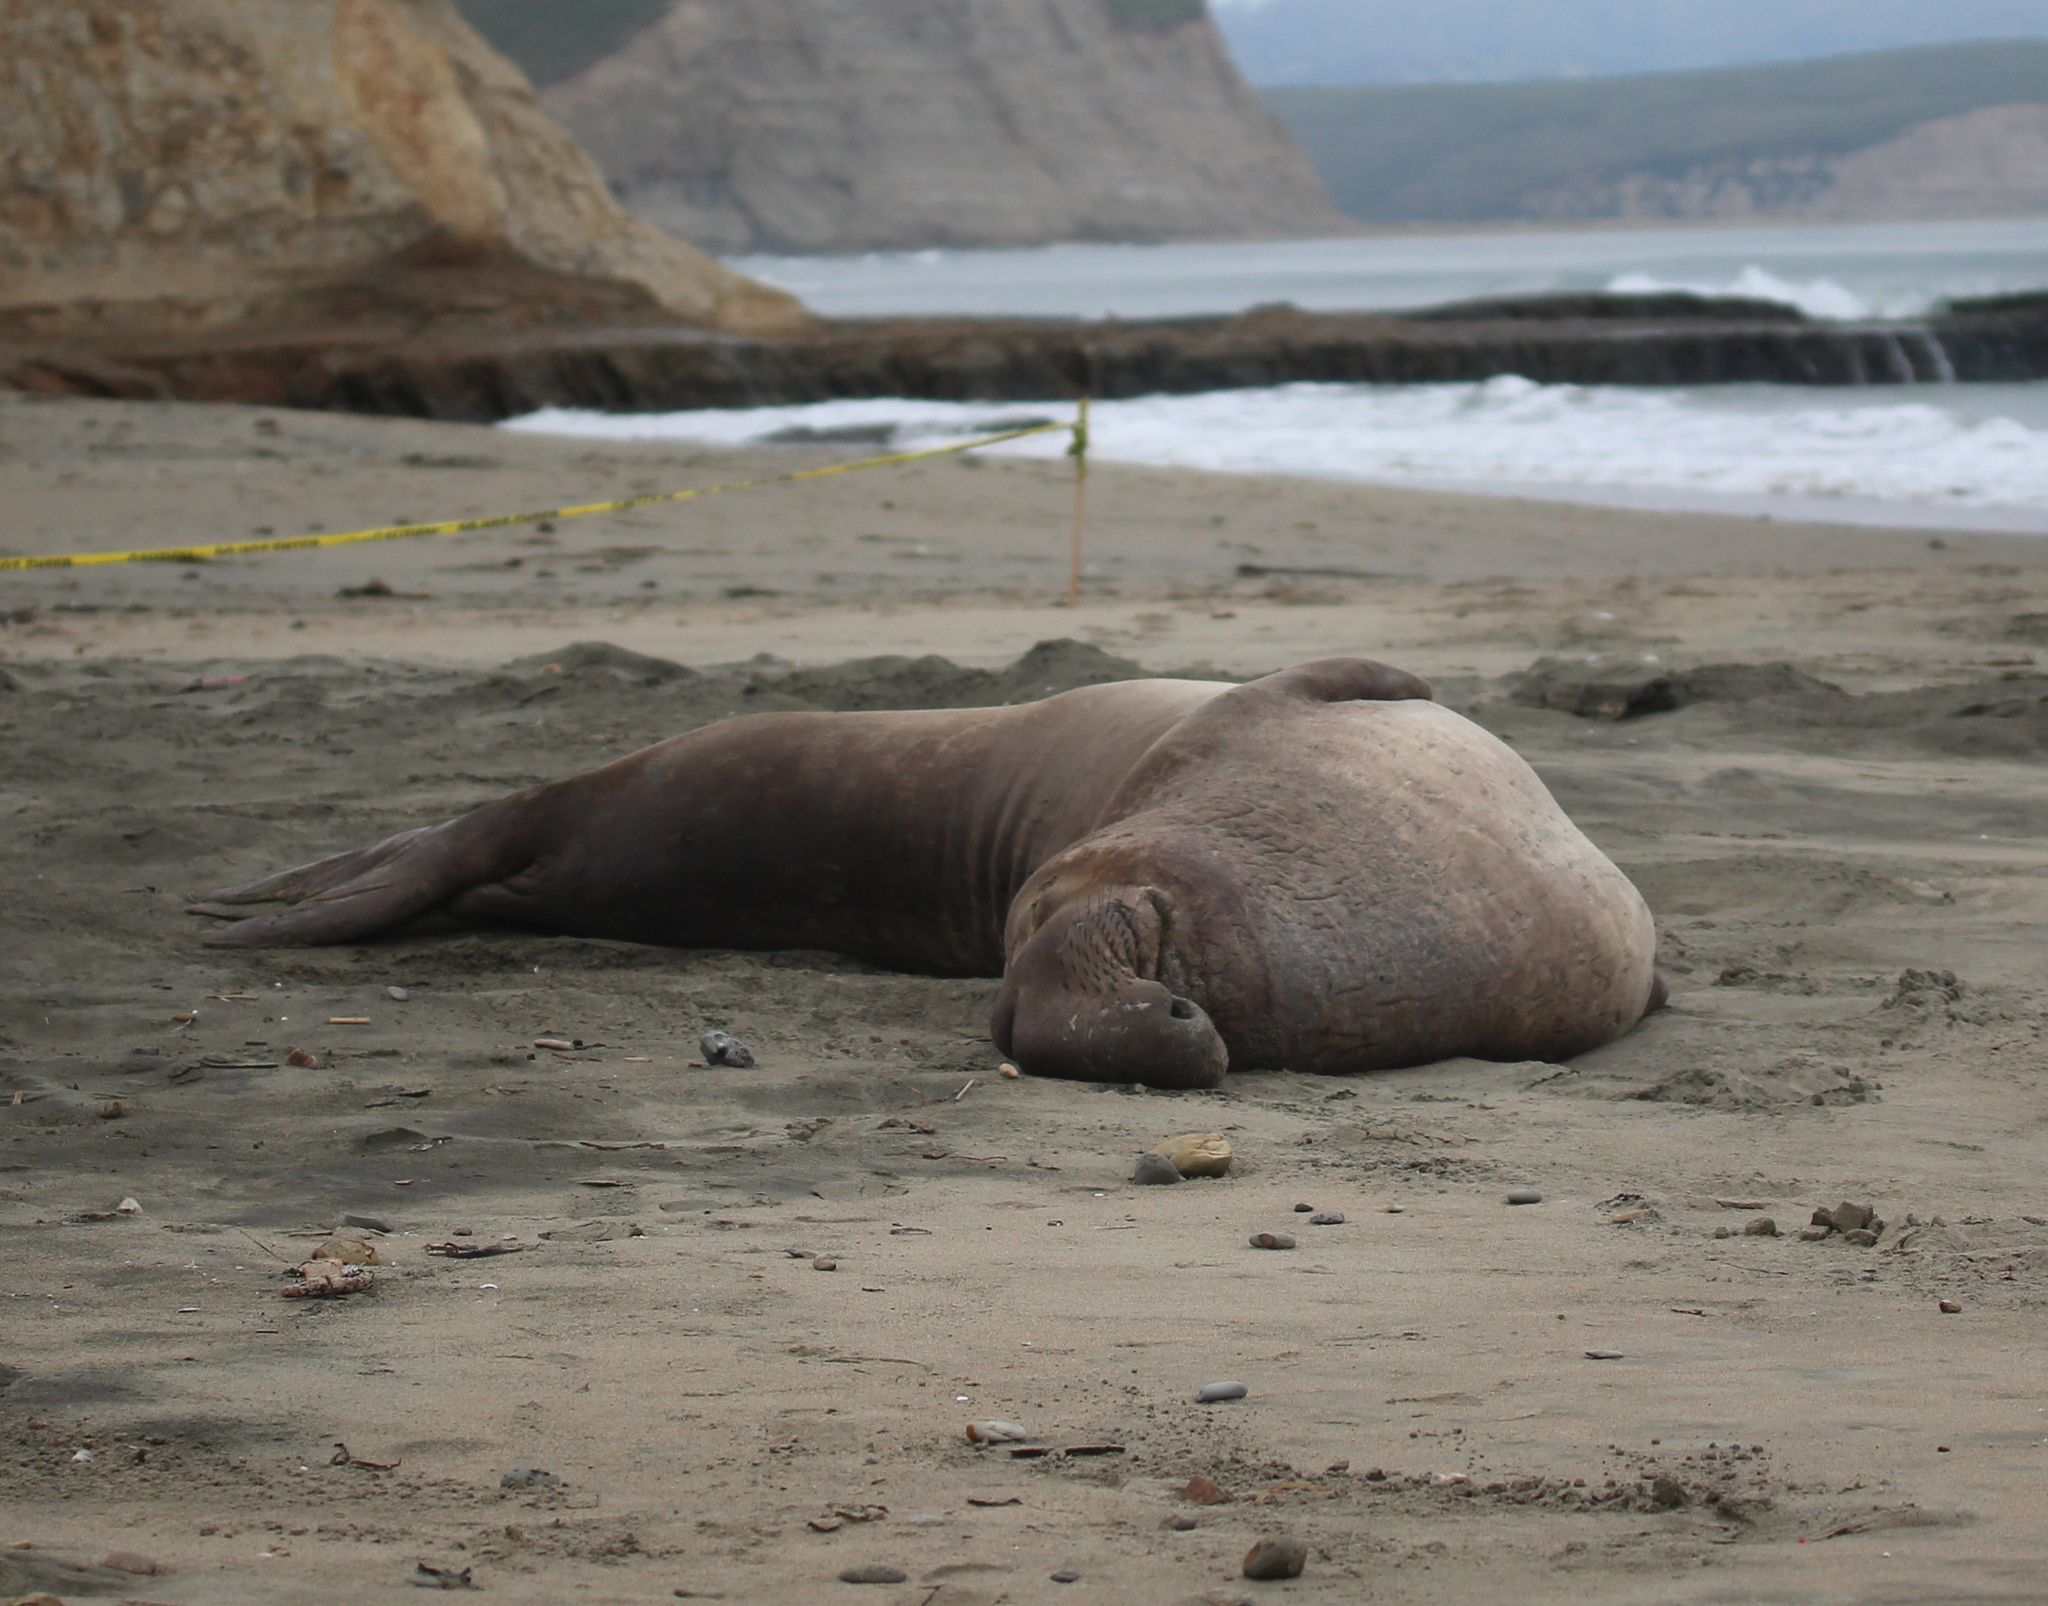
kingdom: Animalia
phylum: Chordata
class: Mammalia
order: Carnivora
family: Phocidae
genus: Mirounga
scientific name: Mirounga angustirostris
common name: Northern elephant seal
